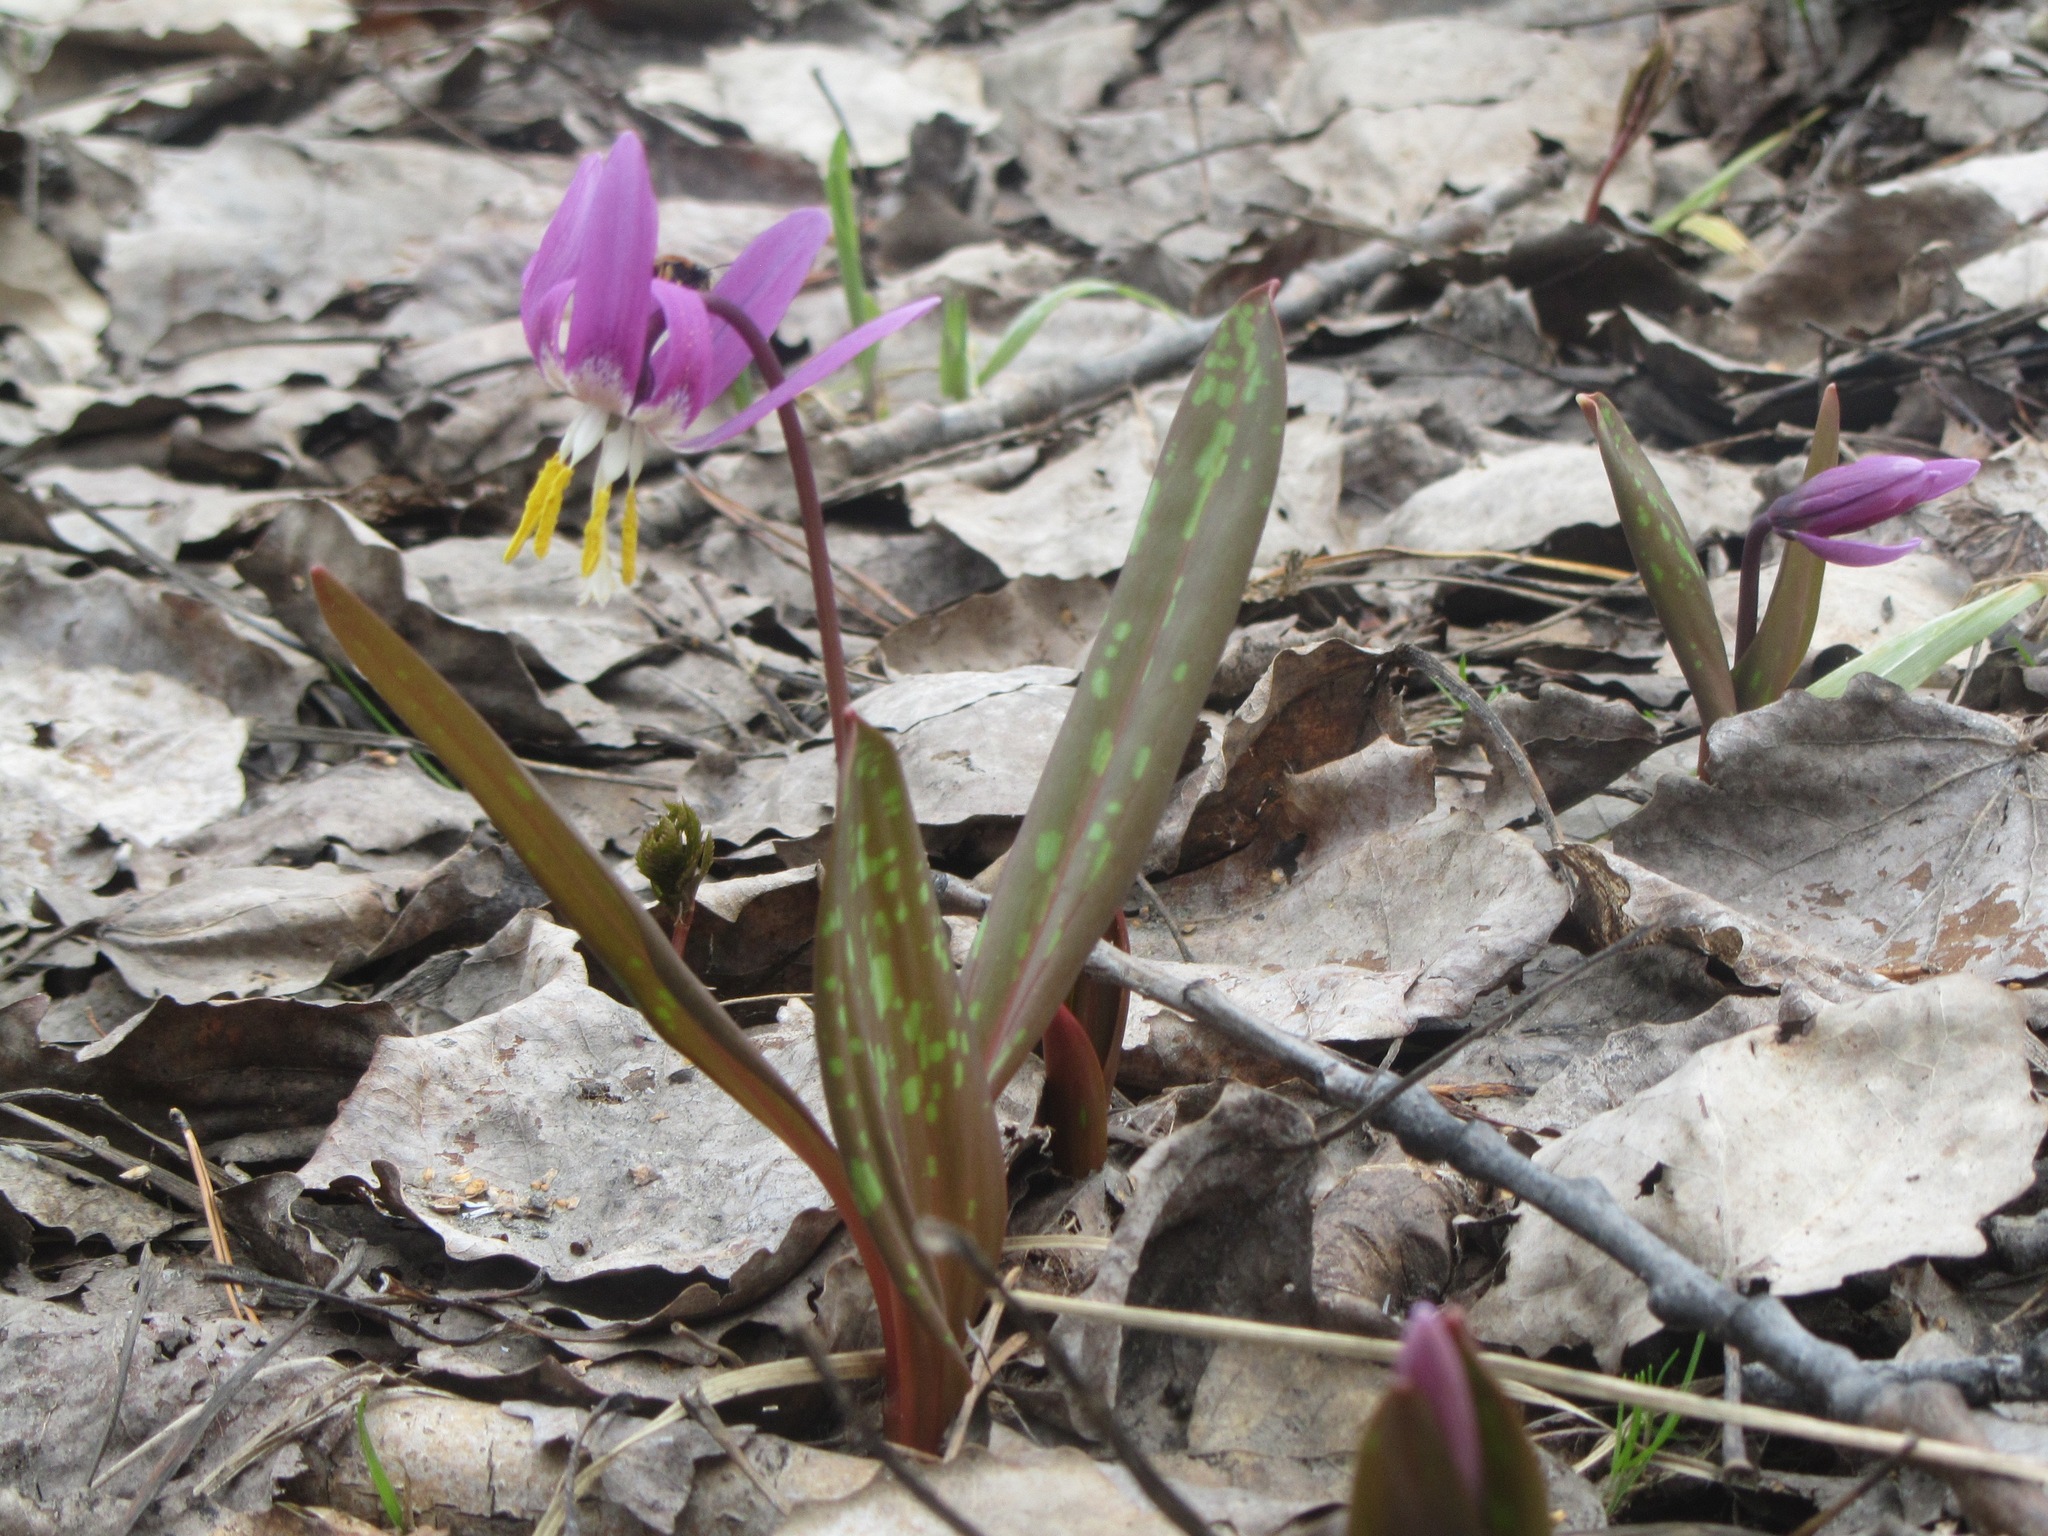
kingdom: Plantae
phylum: Tracheophyta
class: Liliopsida
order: Liliales
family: Liliaceae
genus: Erythronium
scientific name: Erythronium sibiricum
